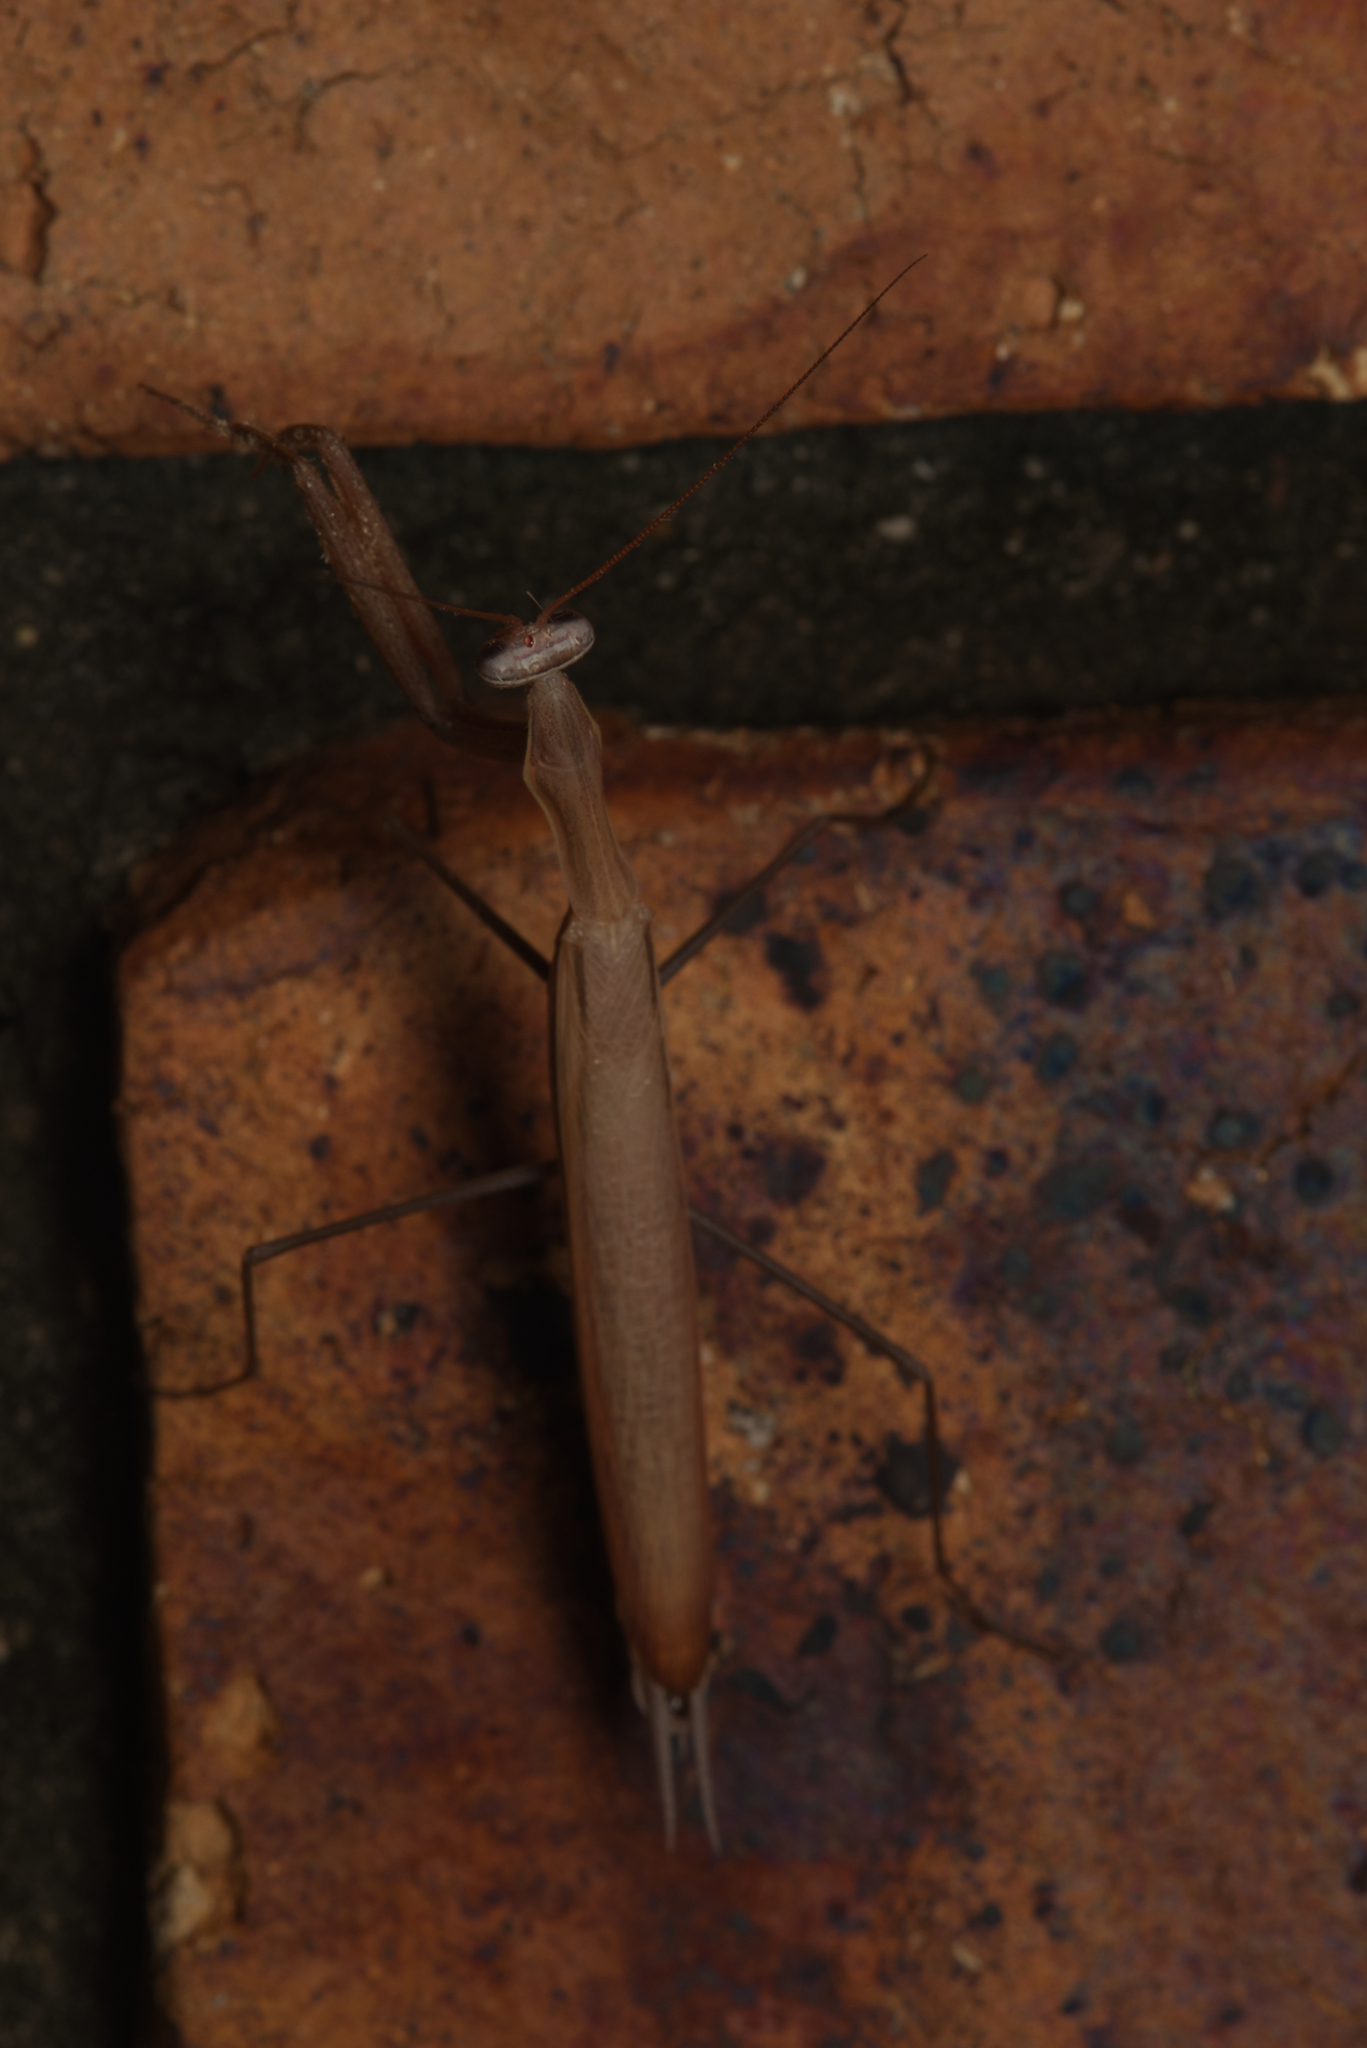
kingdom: Animalia
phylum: Arthropoda
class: Insecta
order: Mantodea
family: Mantidae
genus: Mantis
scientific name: Mantis octospilota
